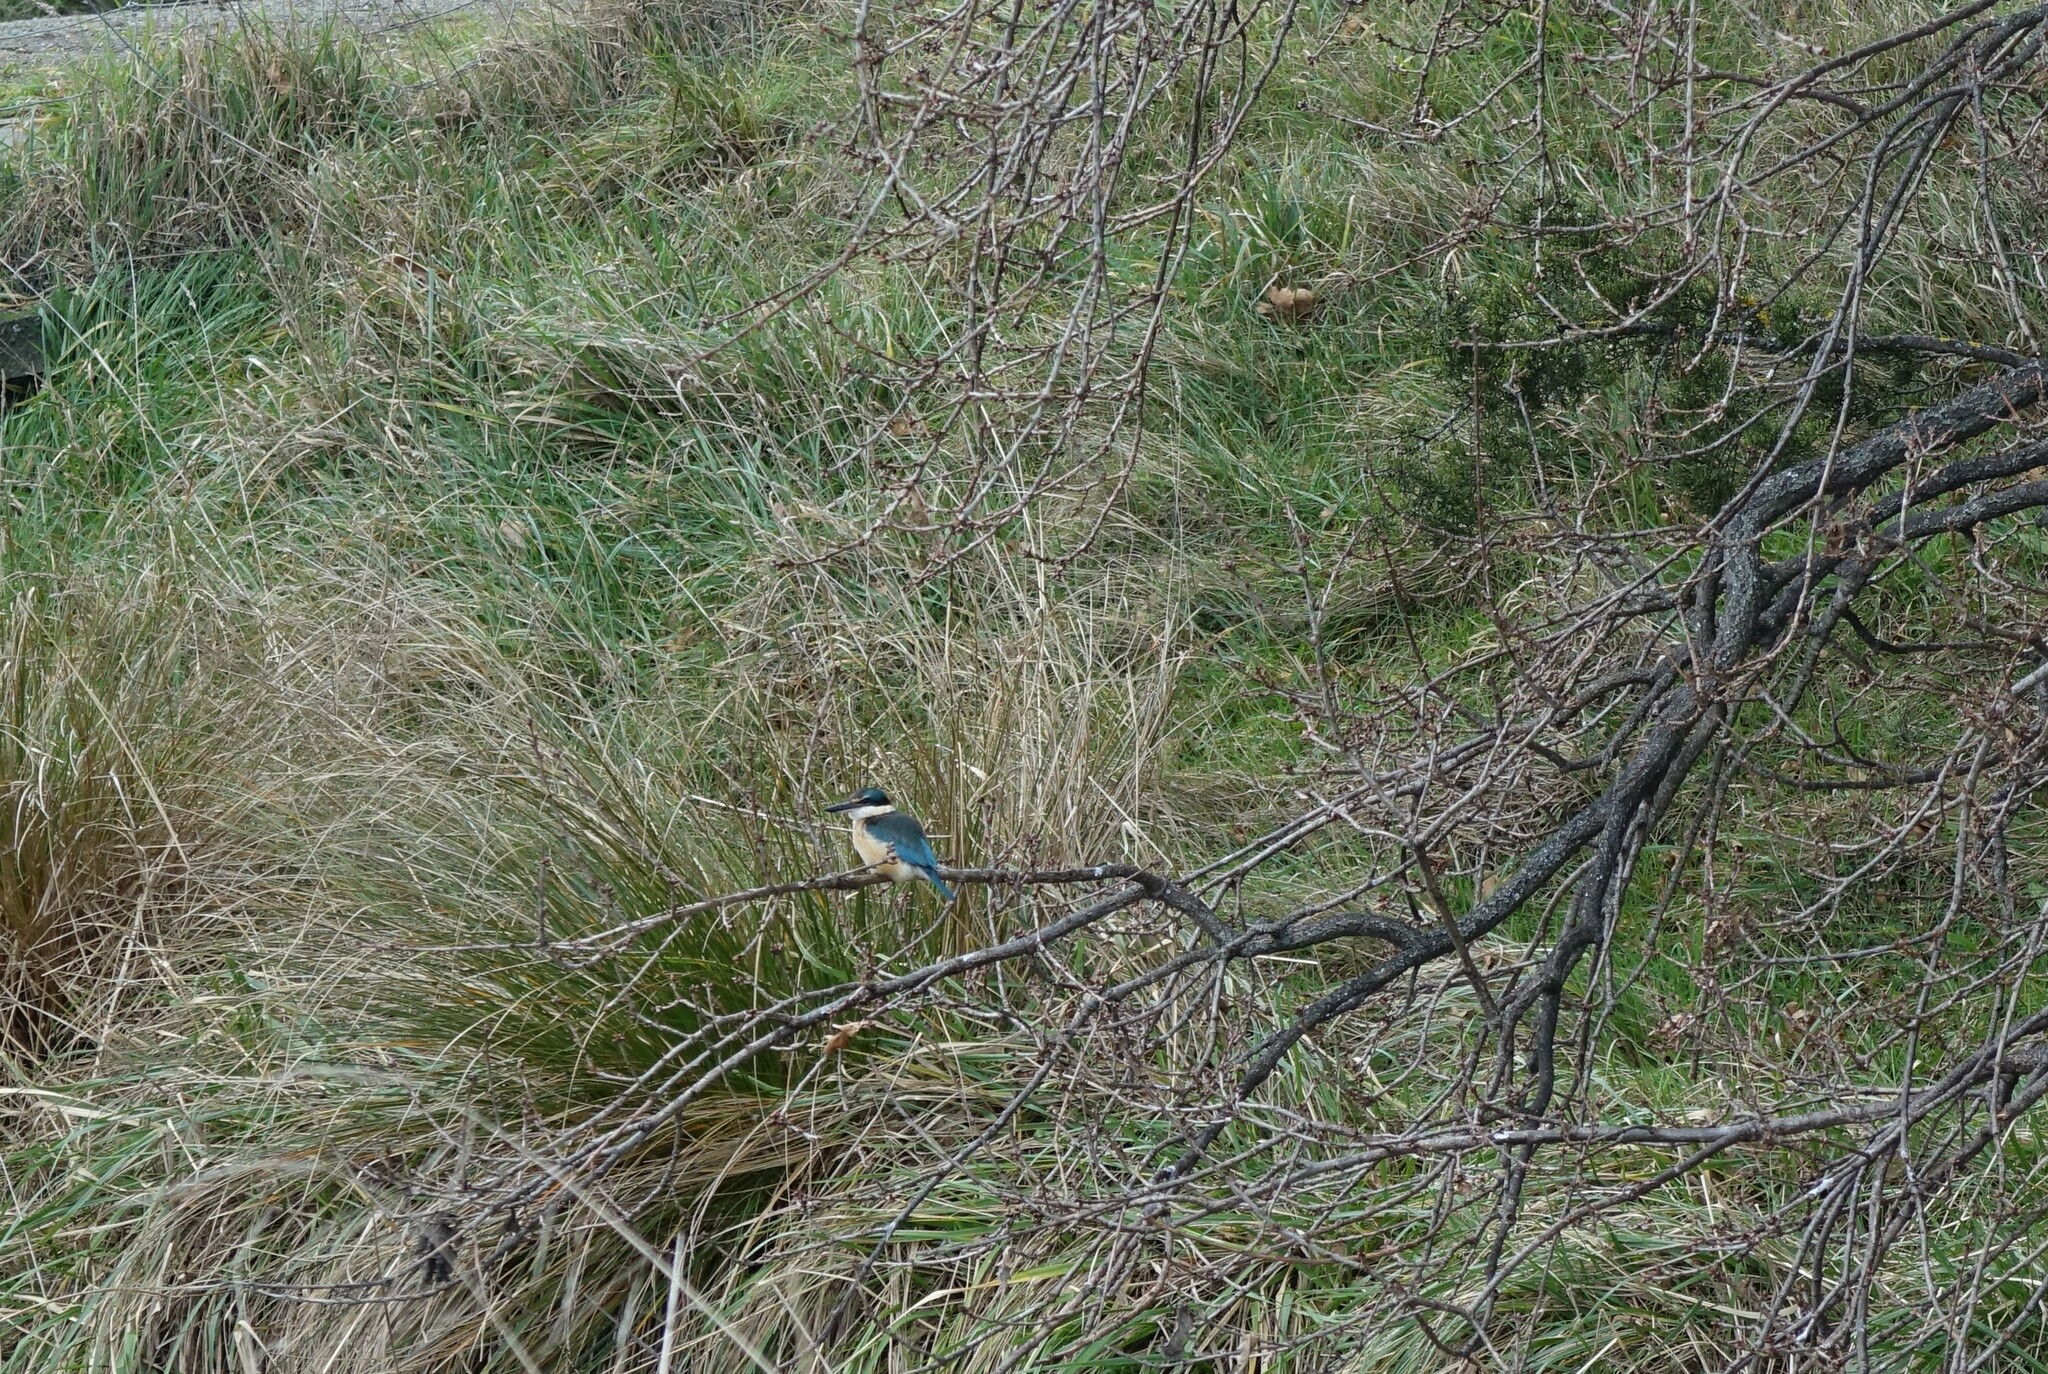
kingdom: Animalia
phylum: Chordata
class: Aves
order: Coraciiformes
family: Alcedinidae
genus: Todiramphus
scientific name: Todiramphus sanctus
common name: Sacred kingfisher
